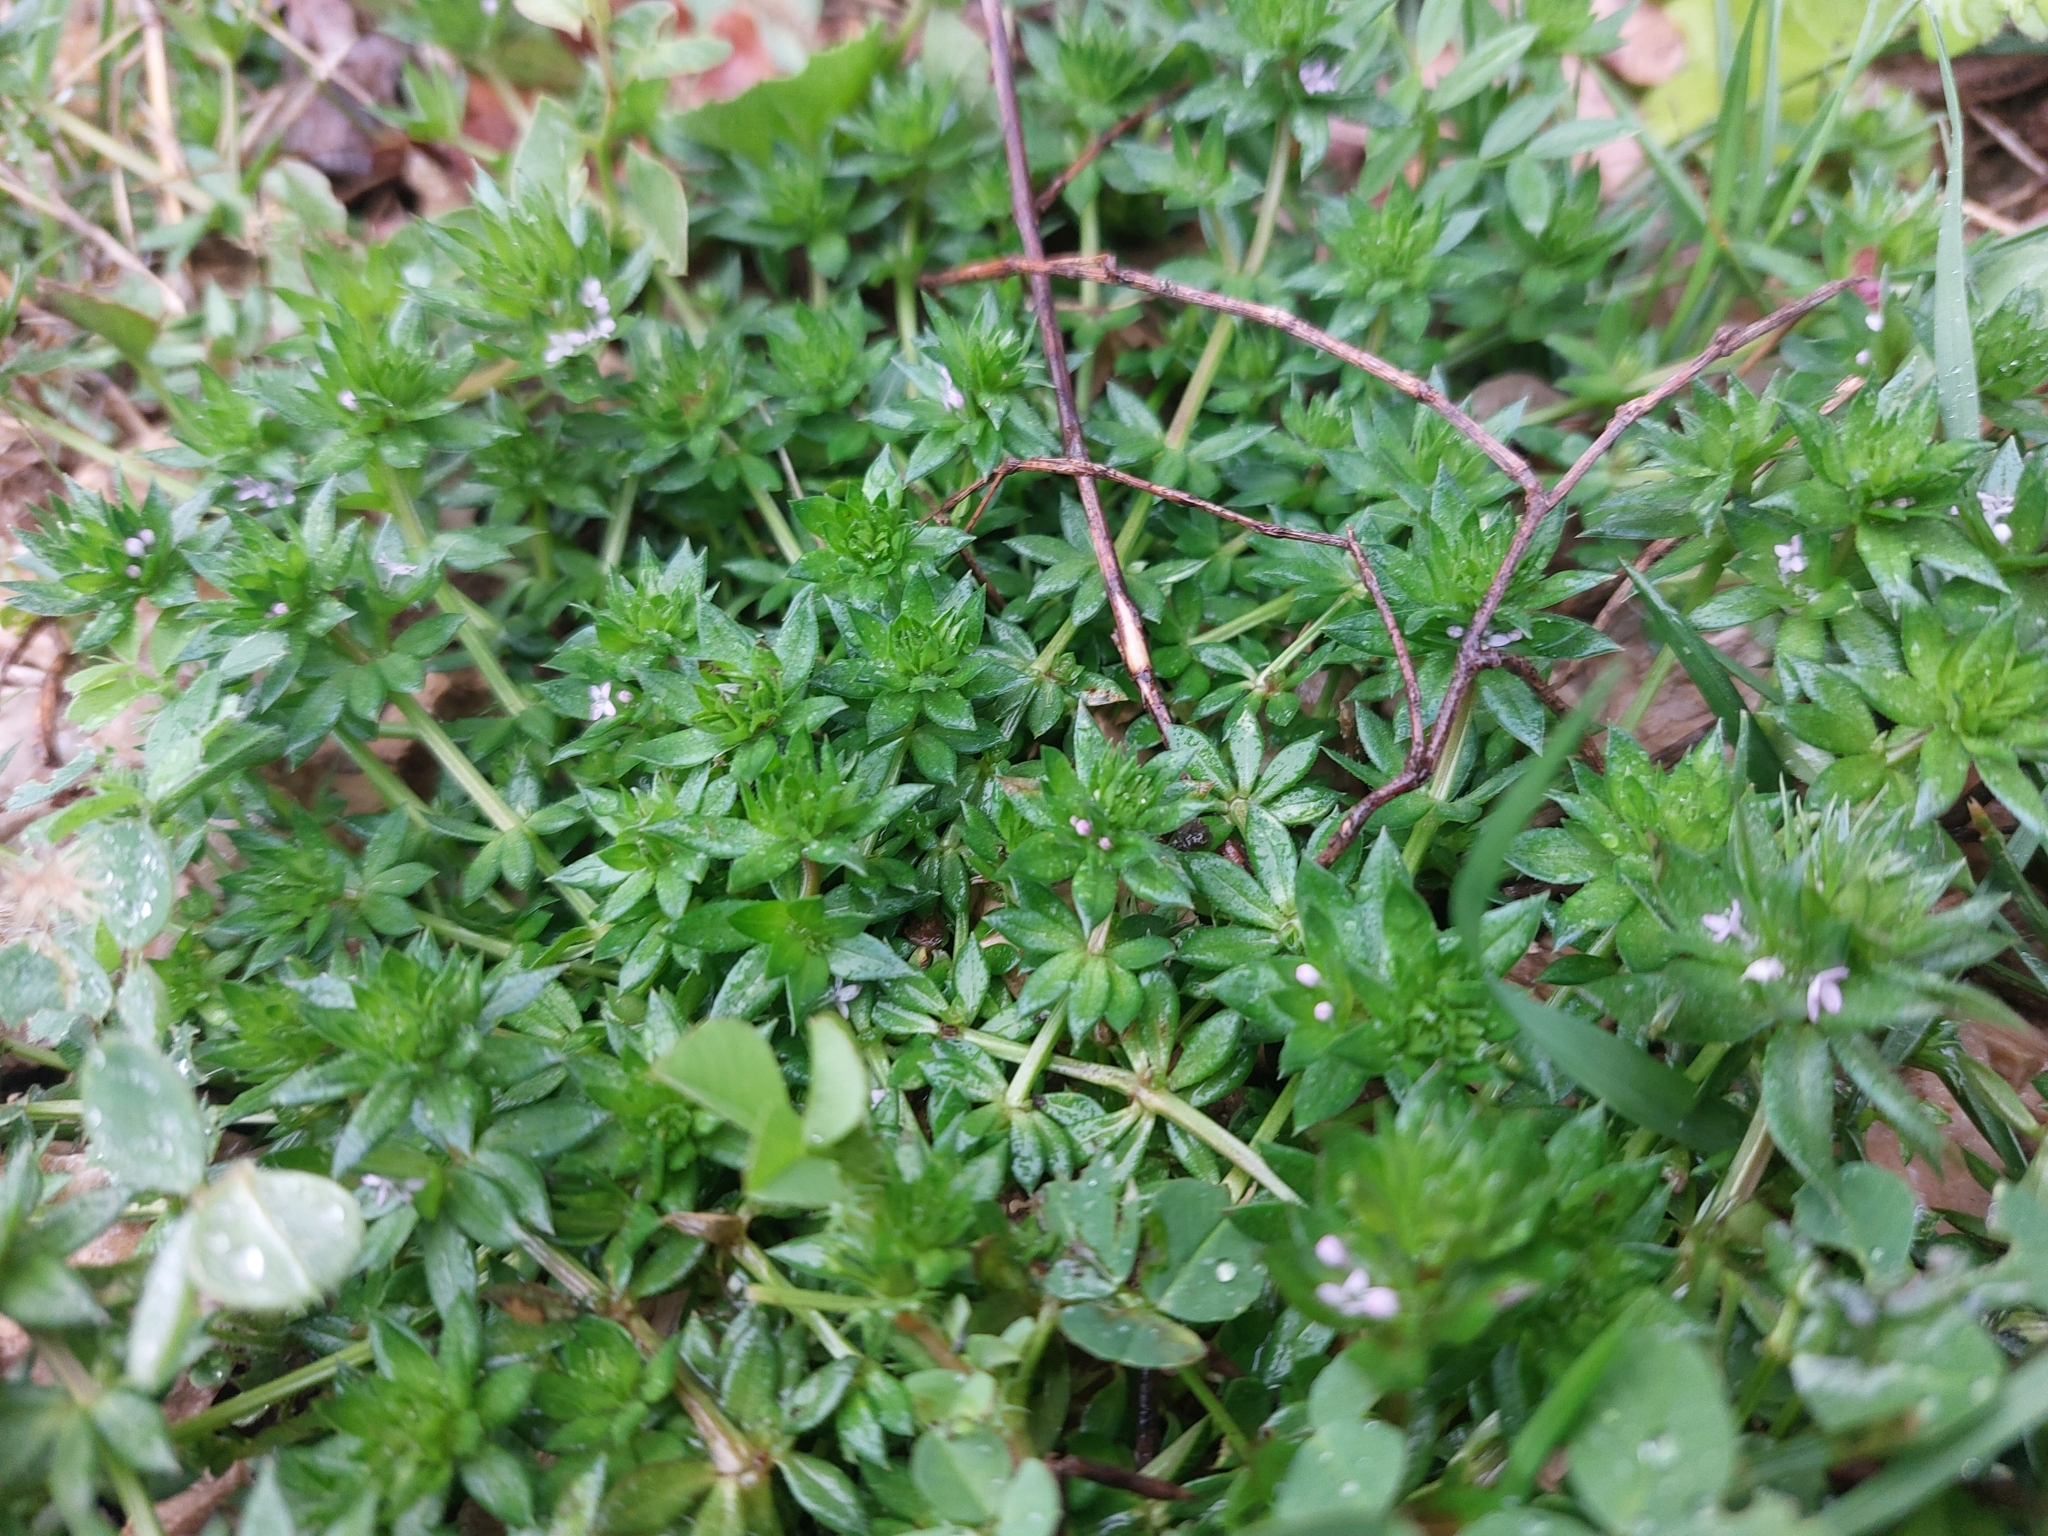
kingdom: Plantae
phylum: Tracheophyta
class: Magnoliopsida
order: Gentianales
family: Rubiaceae
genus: Sherardia
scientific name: Sherardia arvensis
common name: Field madder
